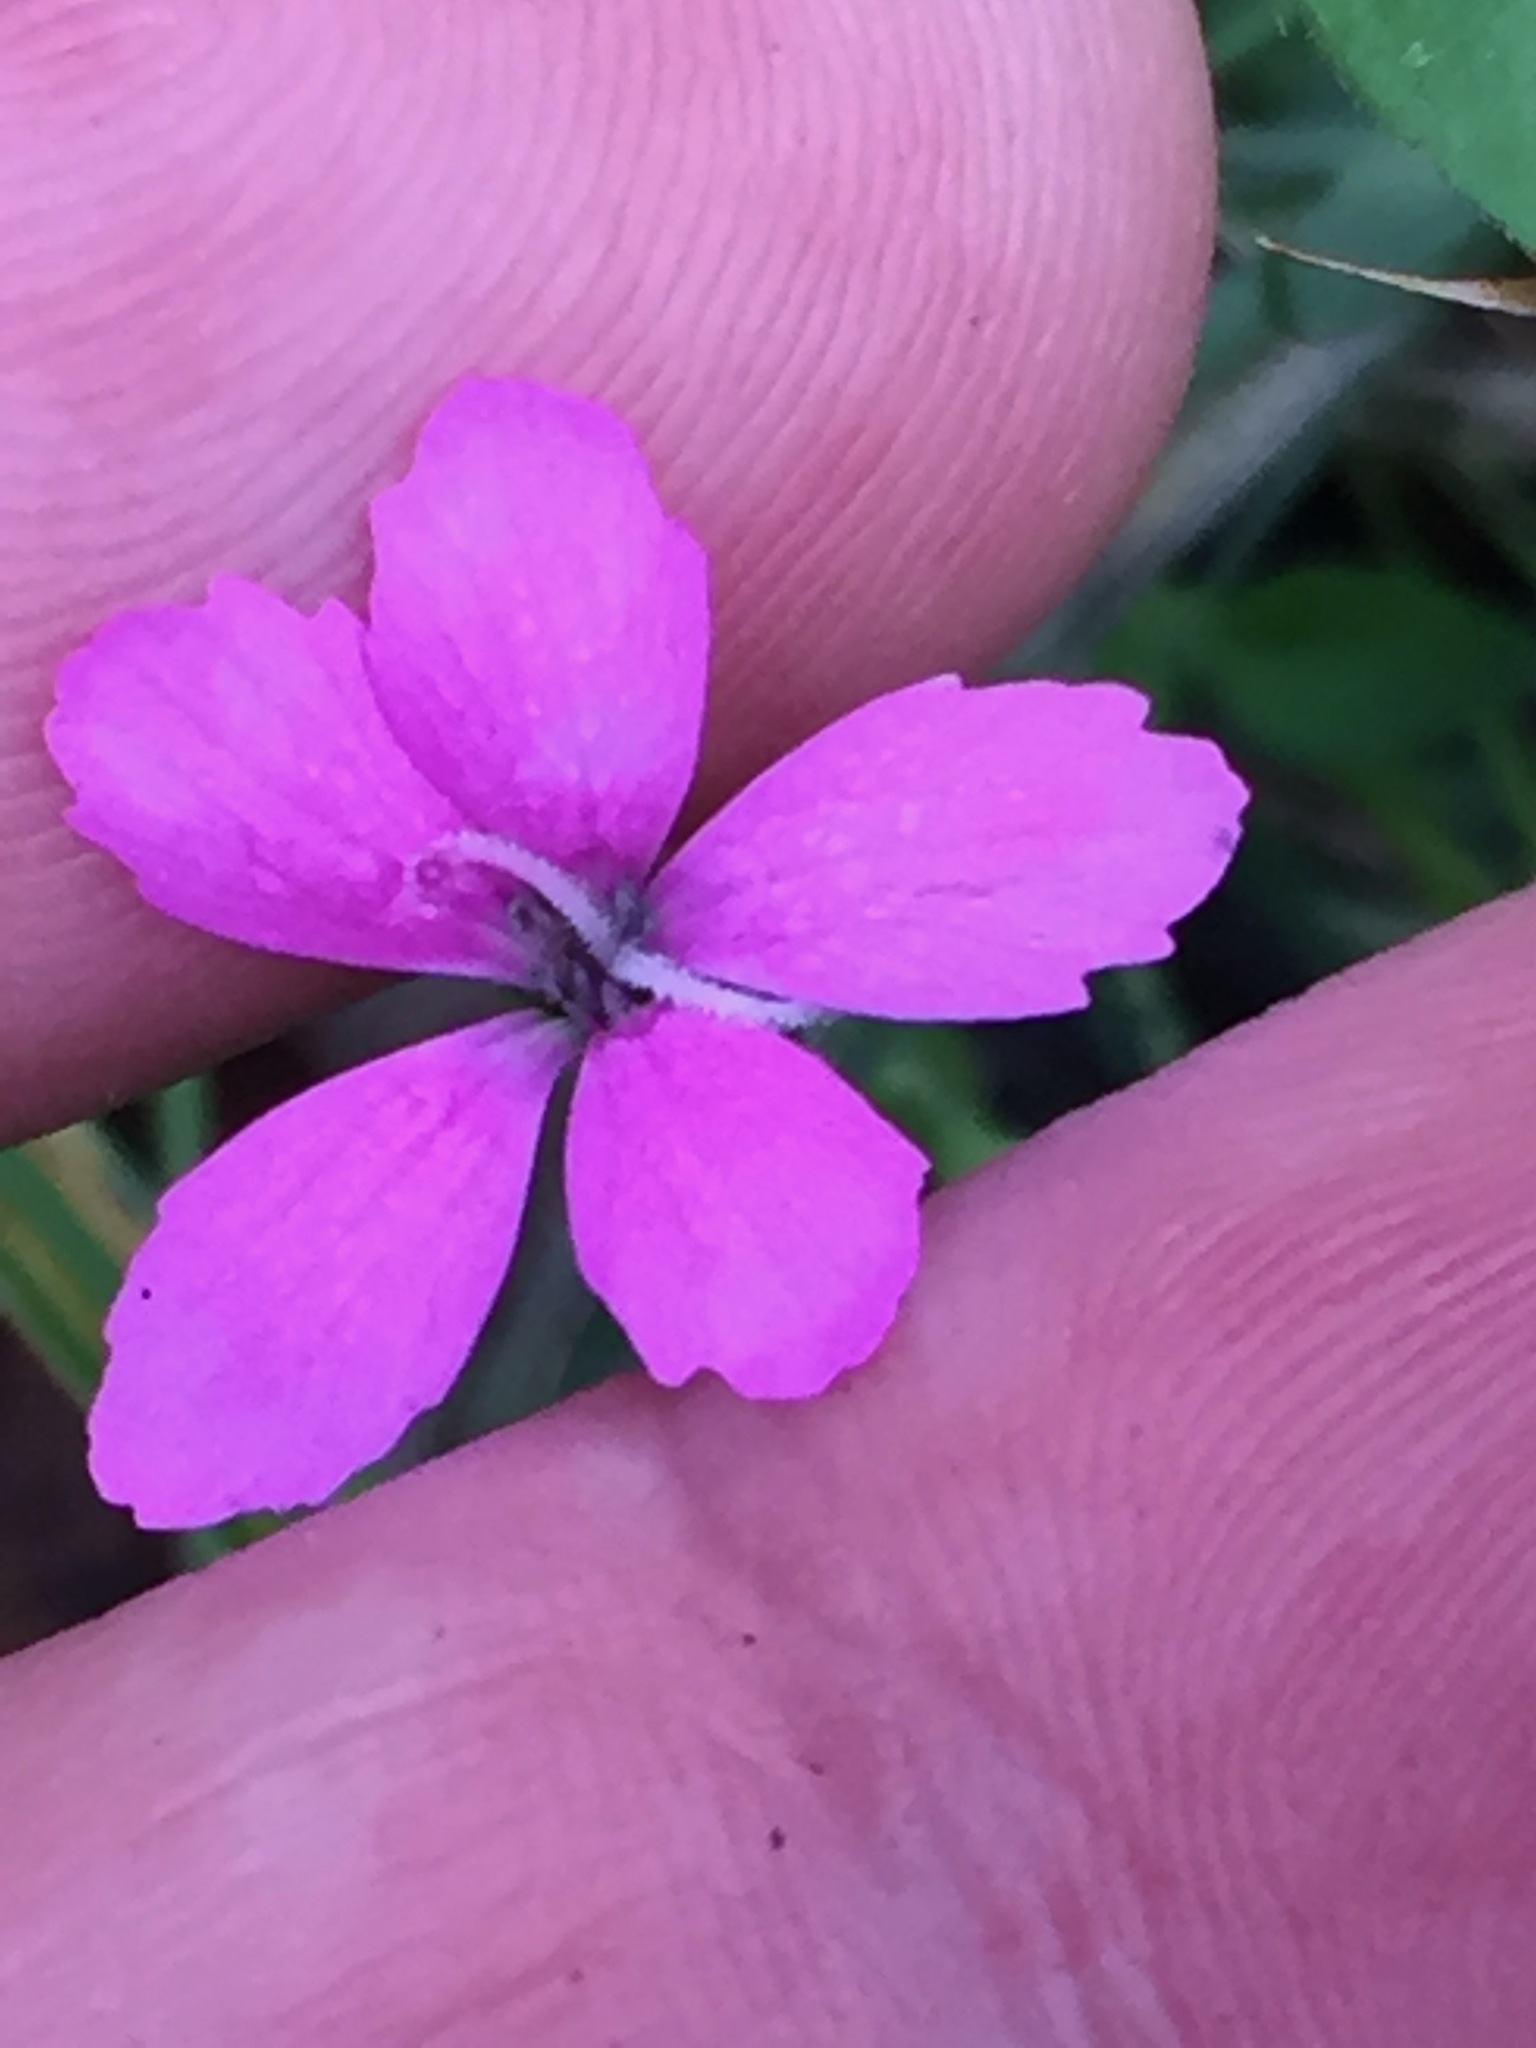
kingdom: Plantae
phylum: Tracheophyta
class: Magnoliopsida
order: Caryophyllales
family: Caryophyllaceae
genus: Dianthus
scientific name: Dianthus armeria
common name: Deptford pink
